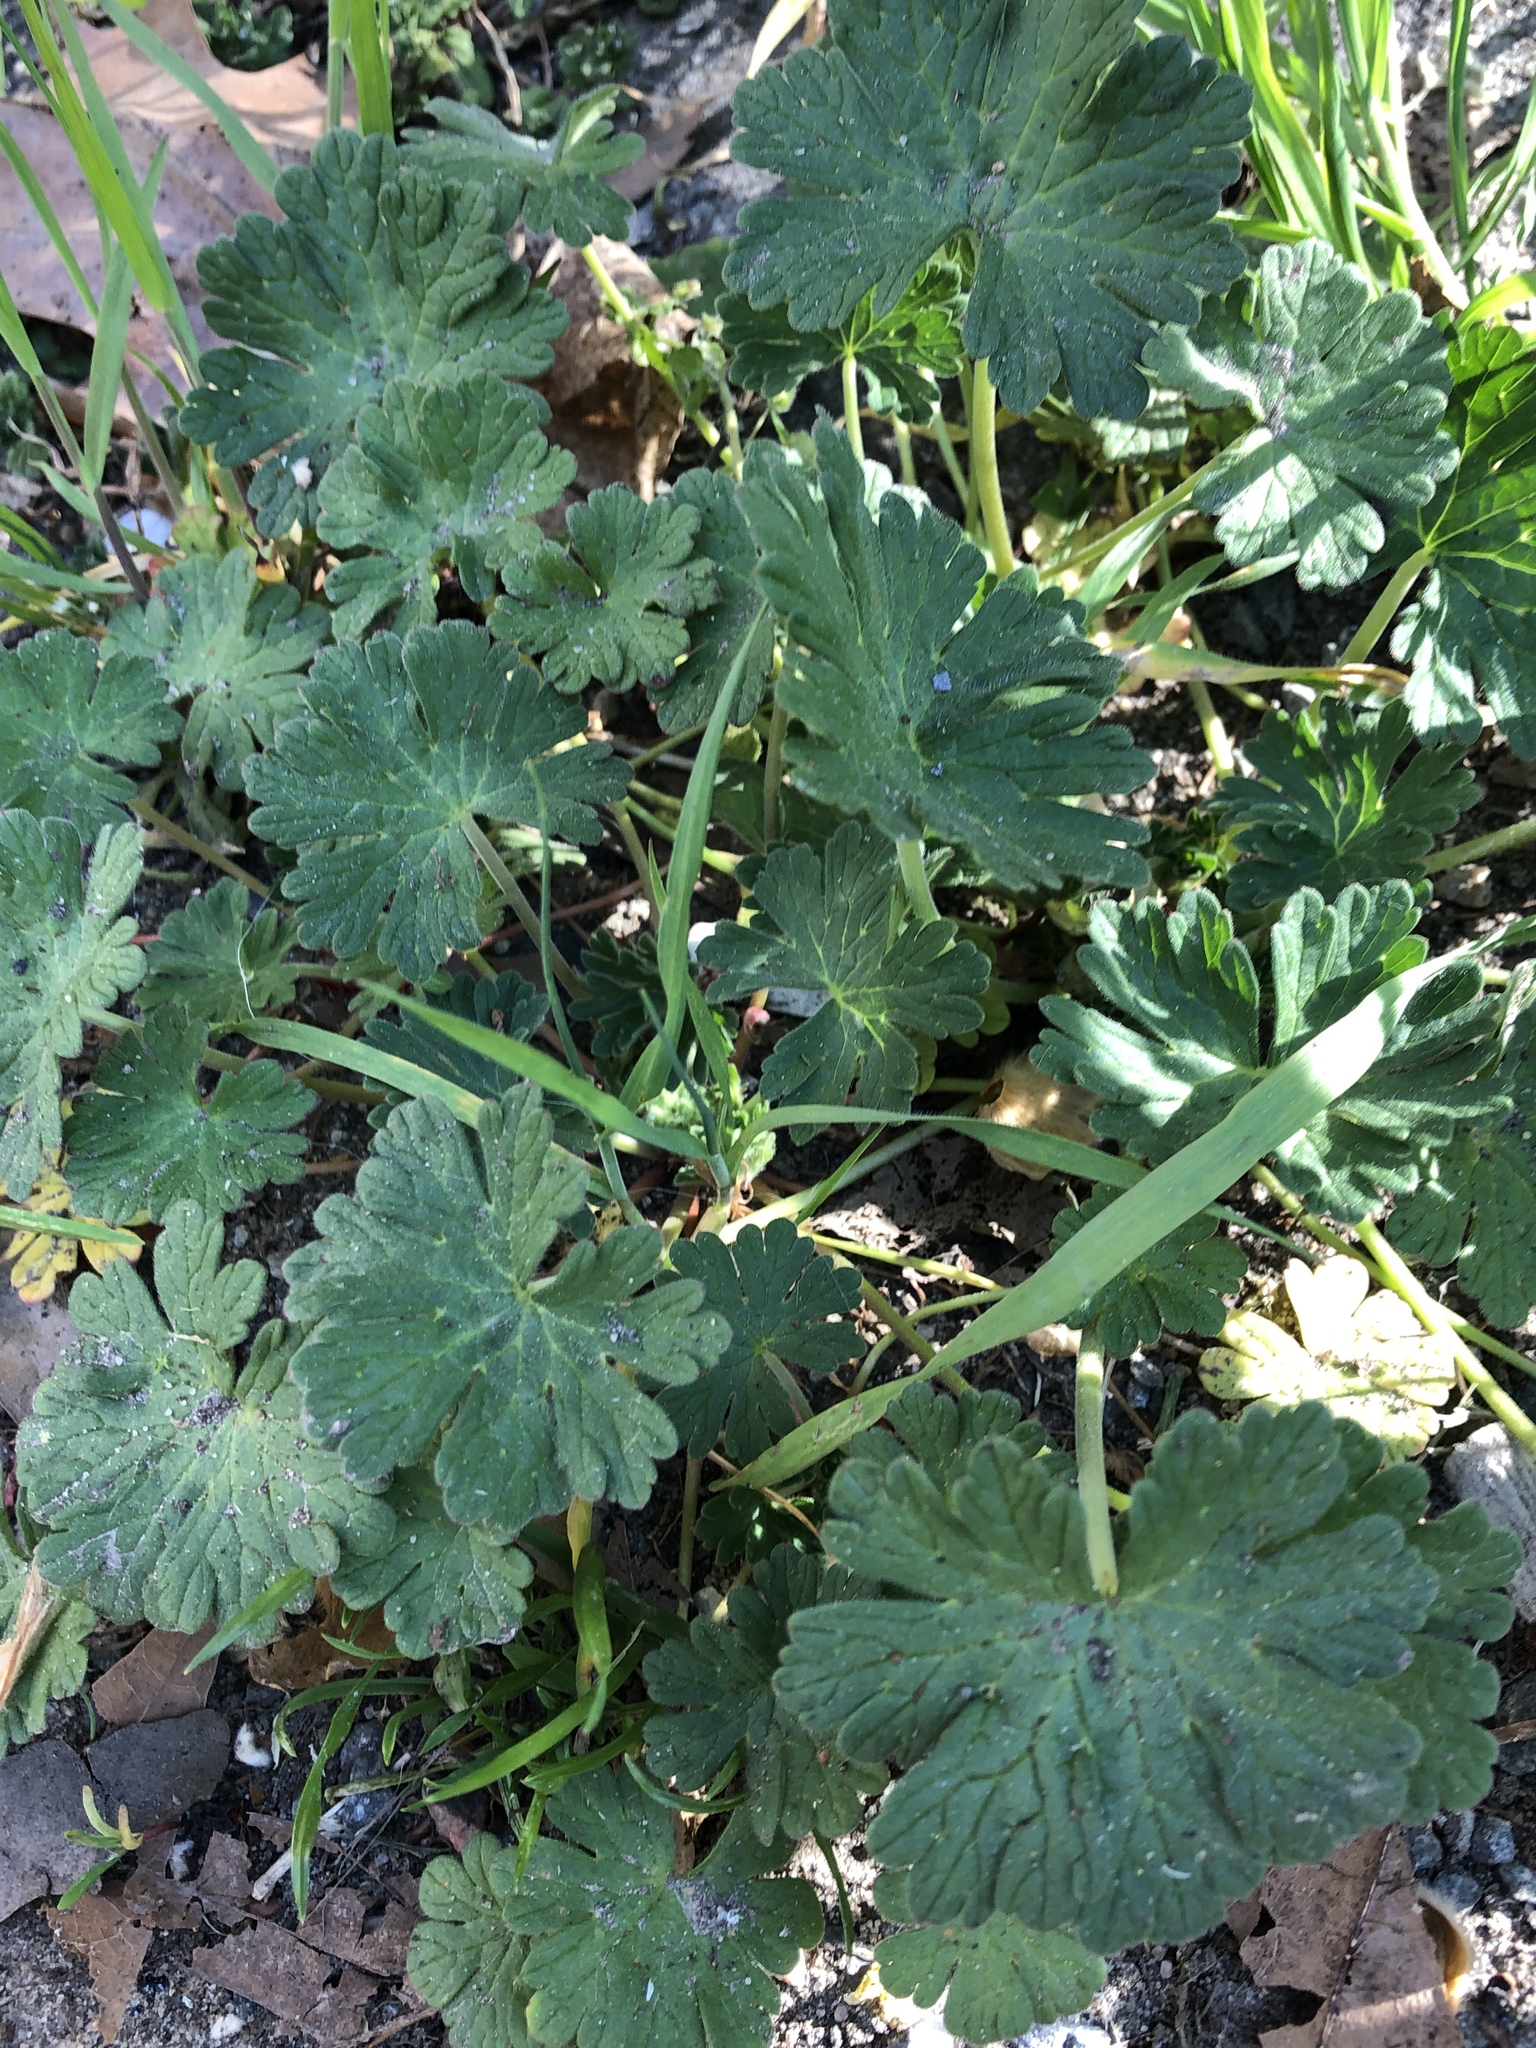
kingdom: Plantae
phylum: Tracheophyta
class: Magnoliopsida
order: Geraniales
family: Geraniaceae
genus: Geranium
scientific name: Geranium molle
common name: Dove's-foot crane's-bill
